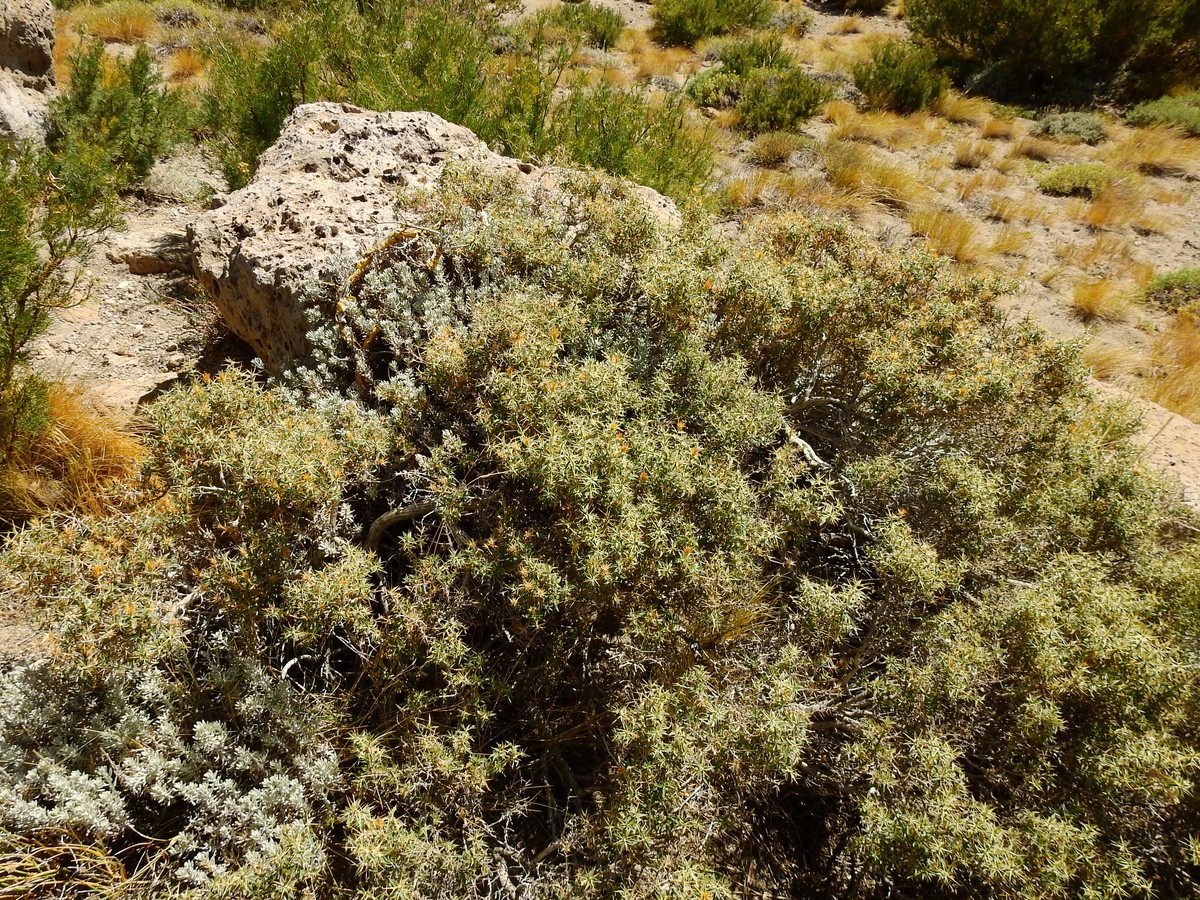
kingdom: Plantae
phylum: Tracheophyta
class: Magnoliopsida
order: Asterales
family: Asteraceae
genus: Chuquiraga
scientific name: Chuquiraga oppositifolia
